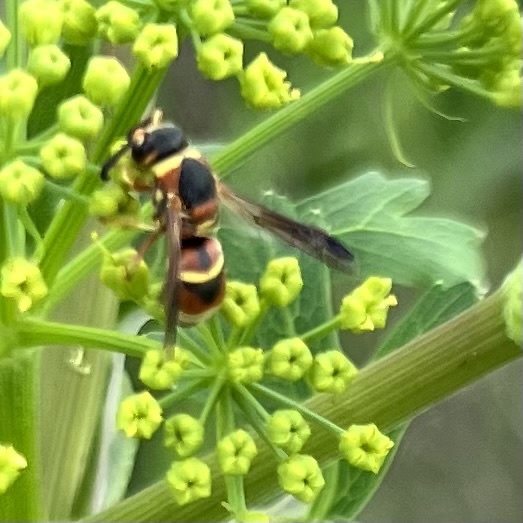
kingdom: Animalia
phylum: Arthropoda
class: Insecta
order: Hymenoptera
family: Eumenidae
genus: Euodynerus
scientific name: Euodynerus
